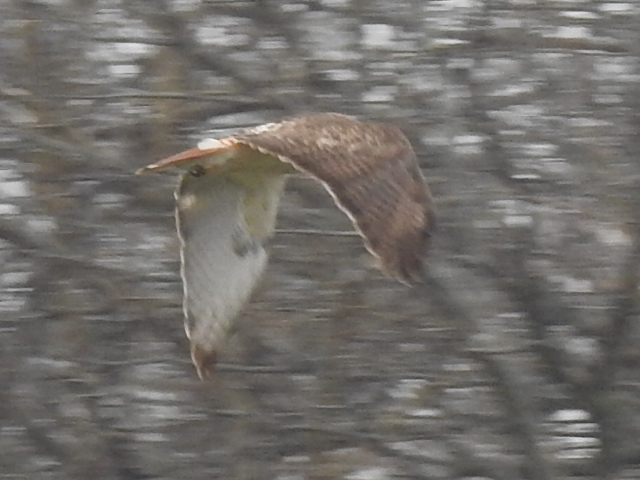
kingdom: Animalia
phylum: Chordata
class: Aves
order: Accipitriformes
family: Accipitridae
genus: Buteo
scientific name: Buteo jamaicensis
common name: Red-tailed hawk
